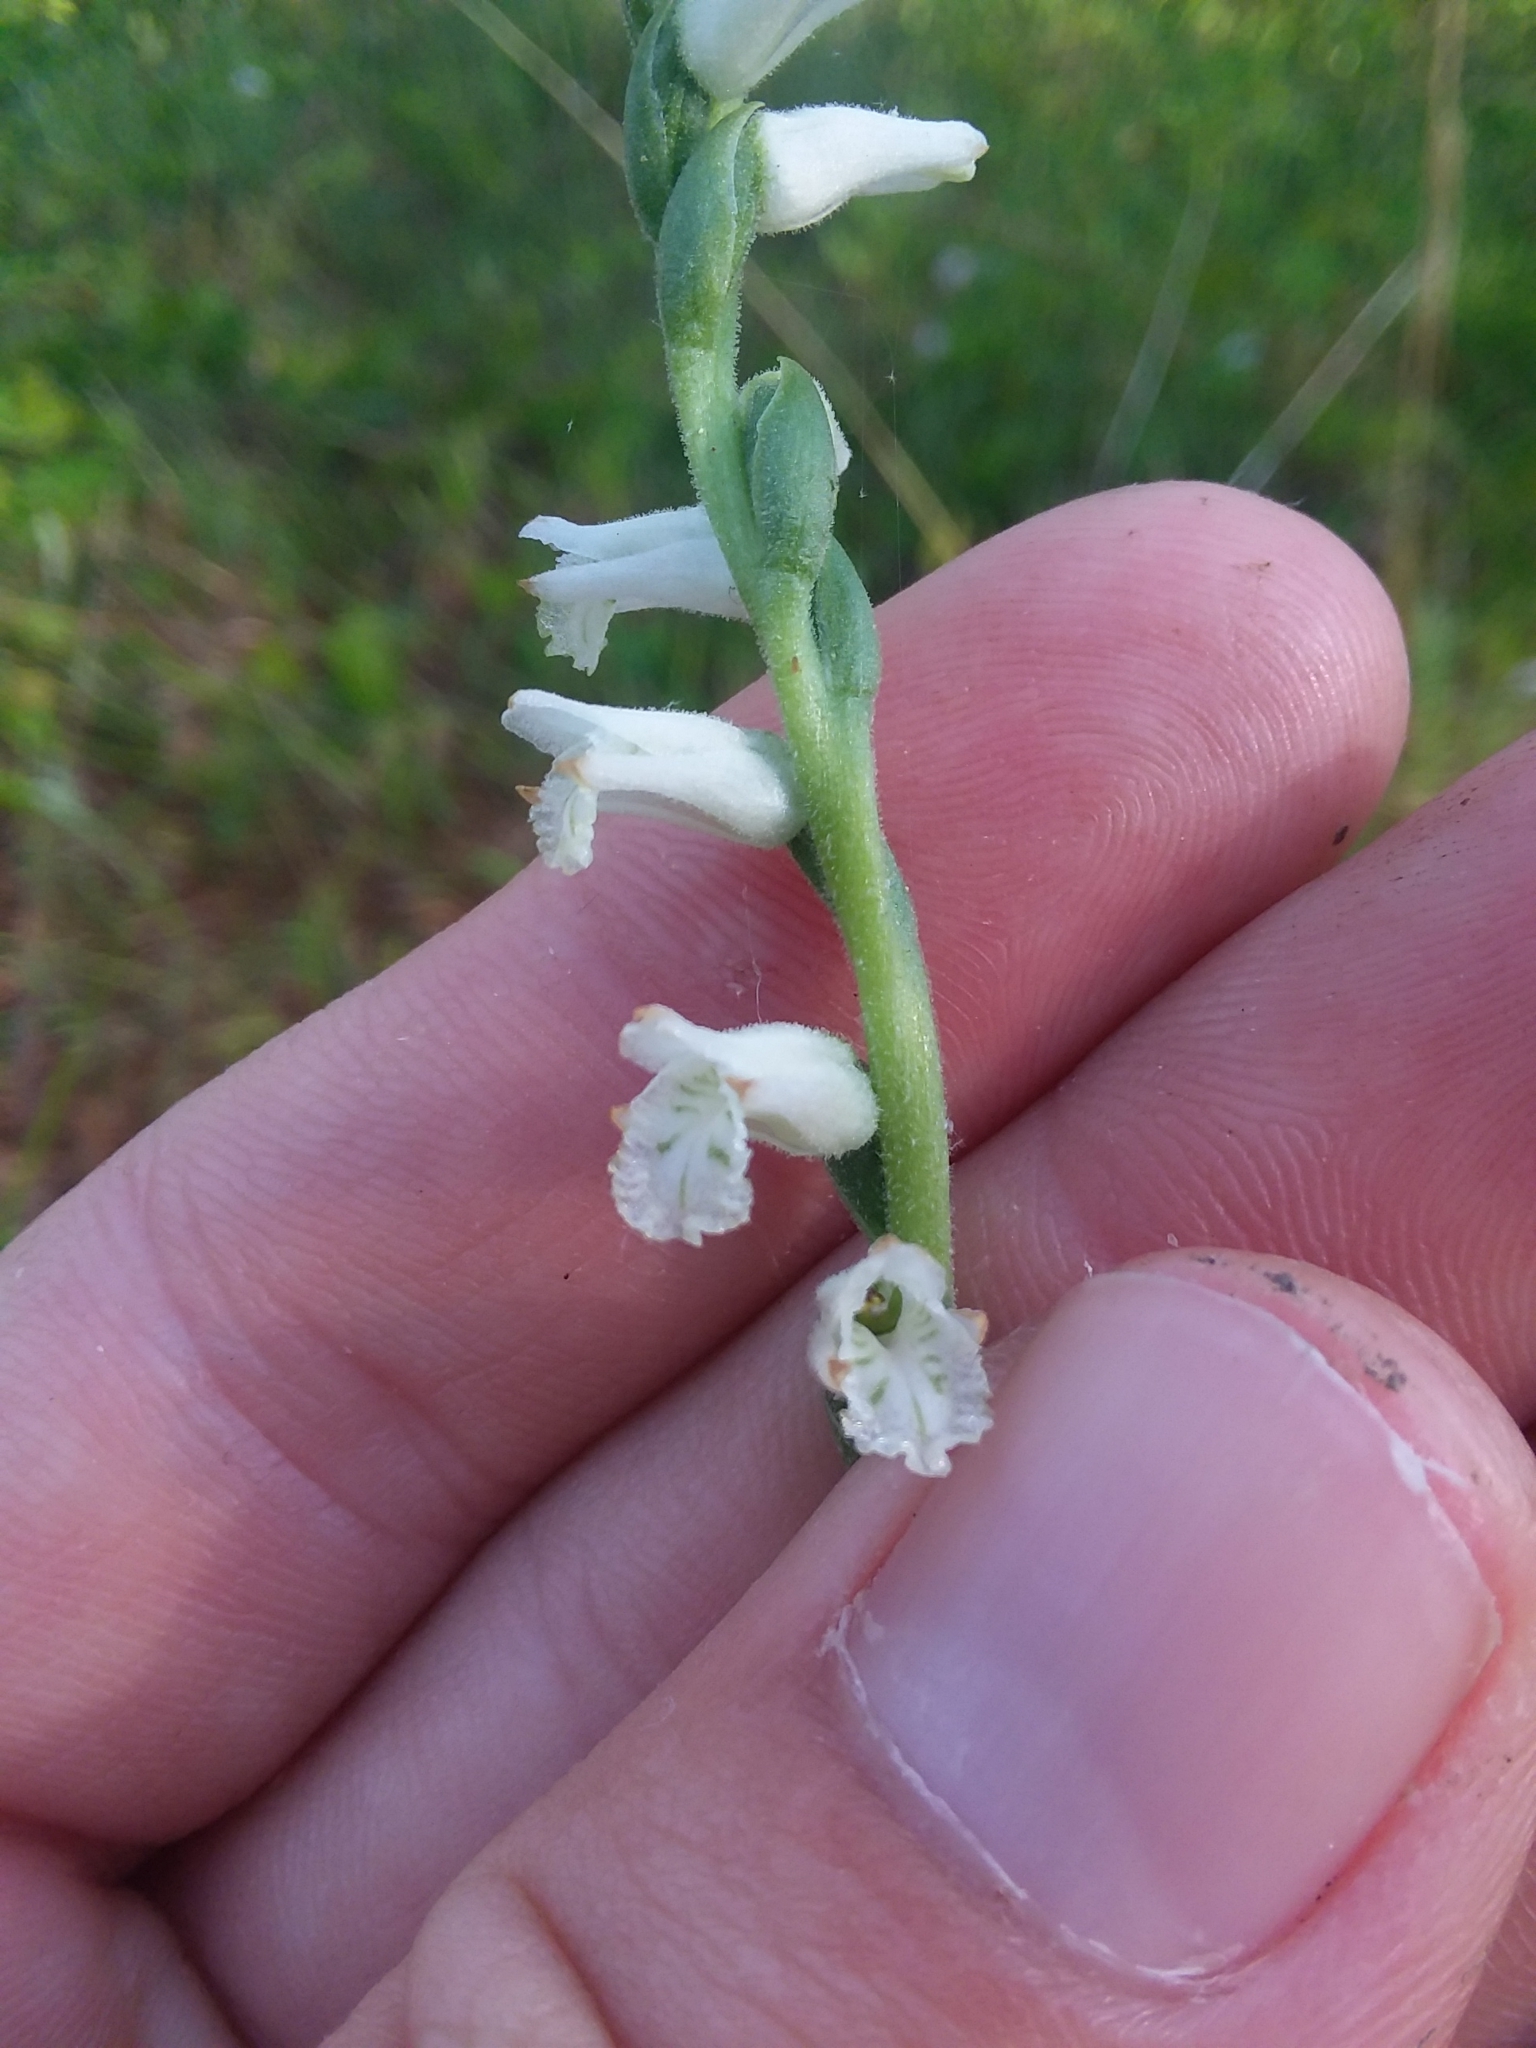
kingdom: Plantae
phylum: Tracheophyta
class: Liliopsida
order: Asparagales
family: Orchidaceae
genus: Spiranthes
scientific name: Spiranthes praecox
